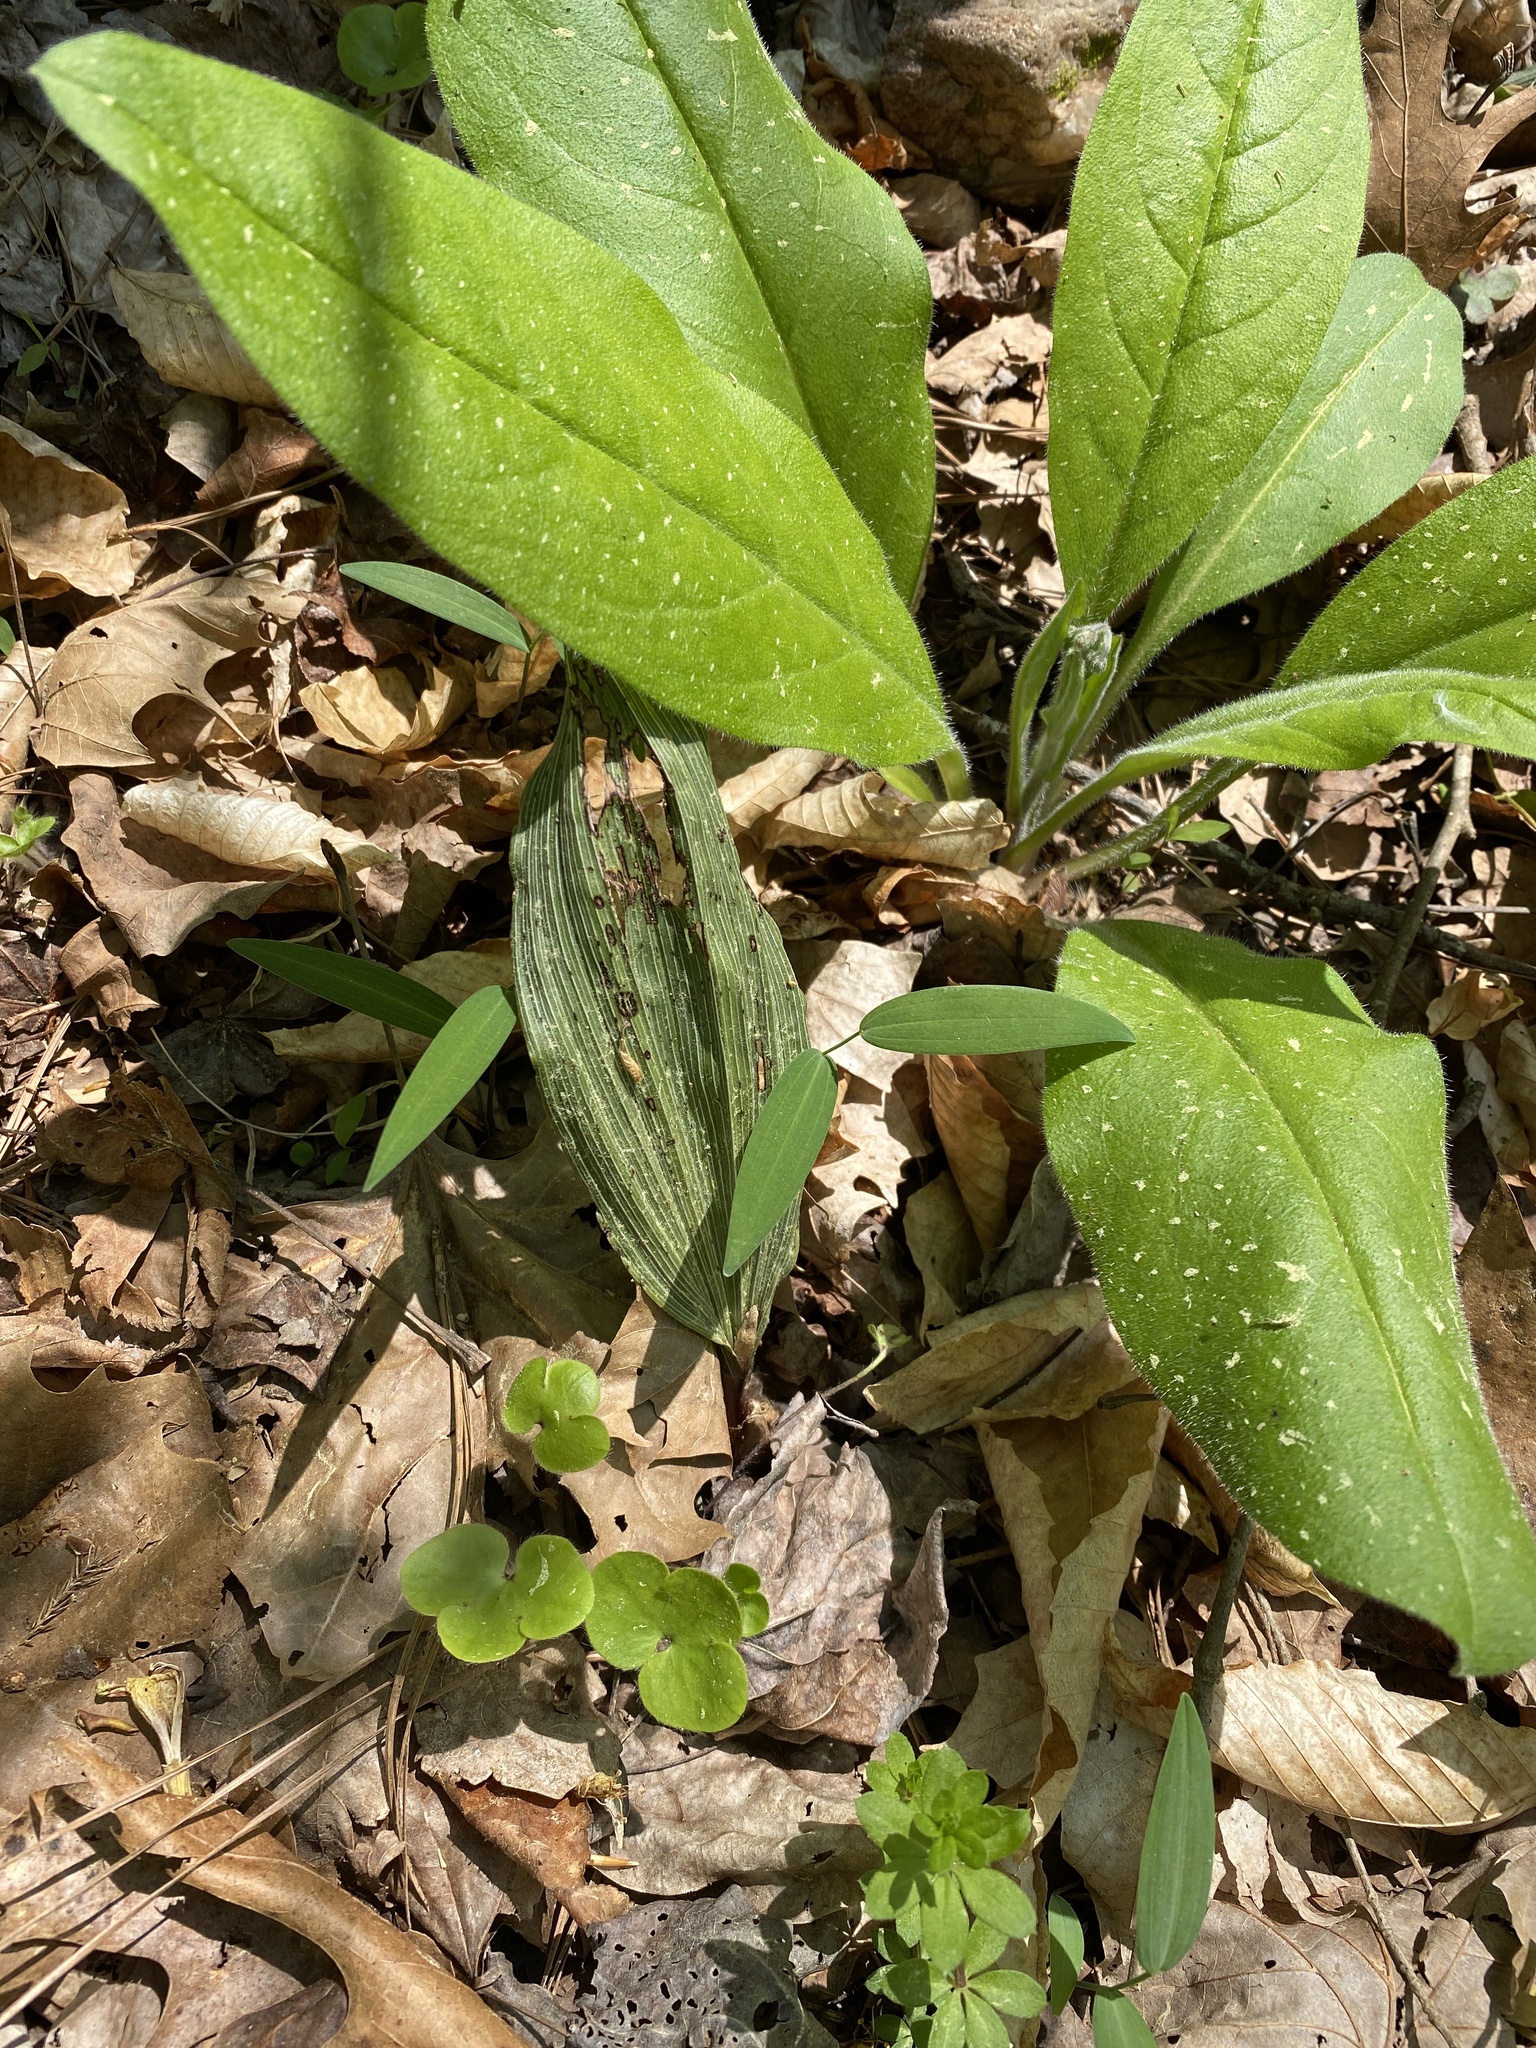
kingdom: Plantae
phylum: Tracheophyta
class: Liliopsida
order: Asparagales
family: Orchidaceae
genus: Aplectrum
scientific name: Aplectrum hyemale
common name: Adam-and-eve
